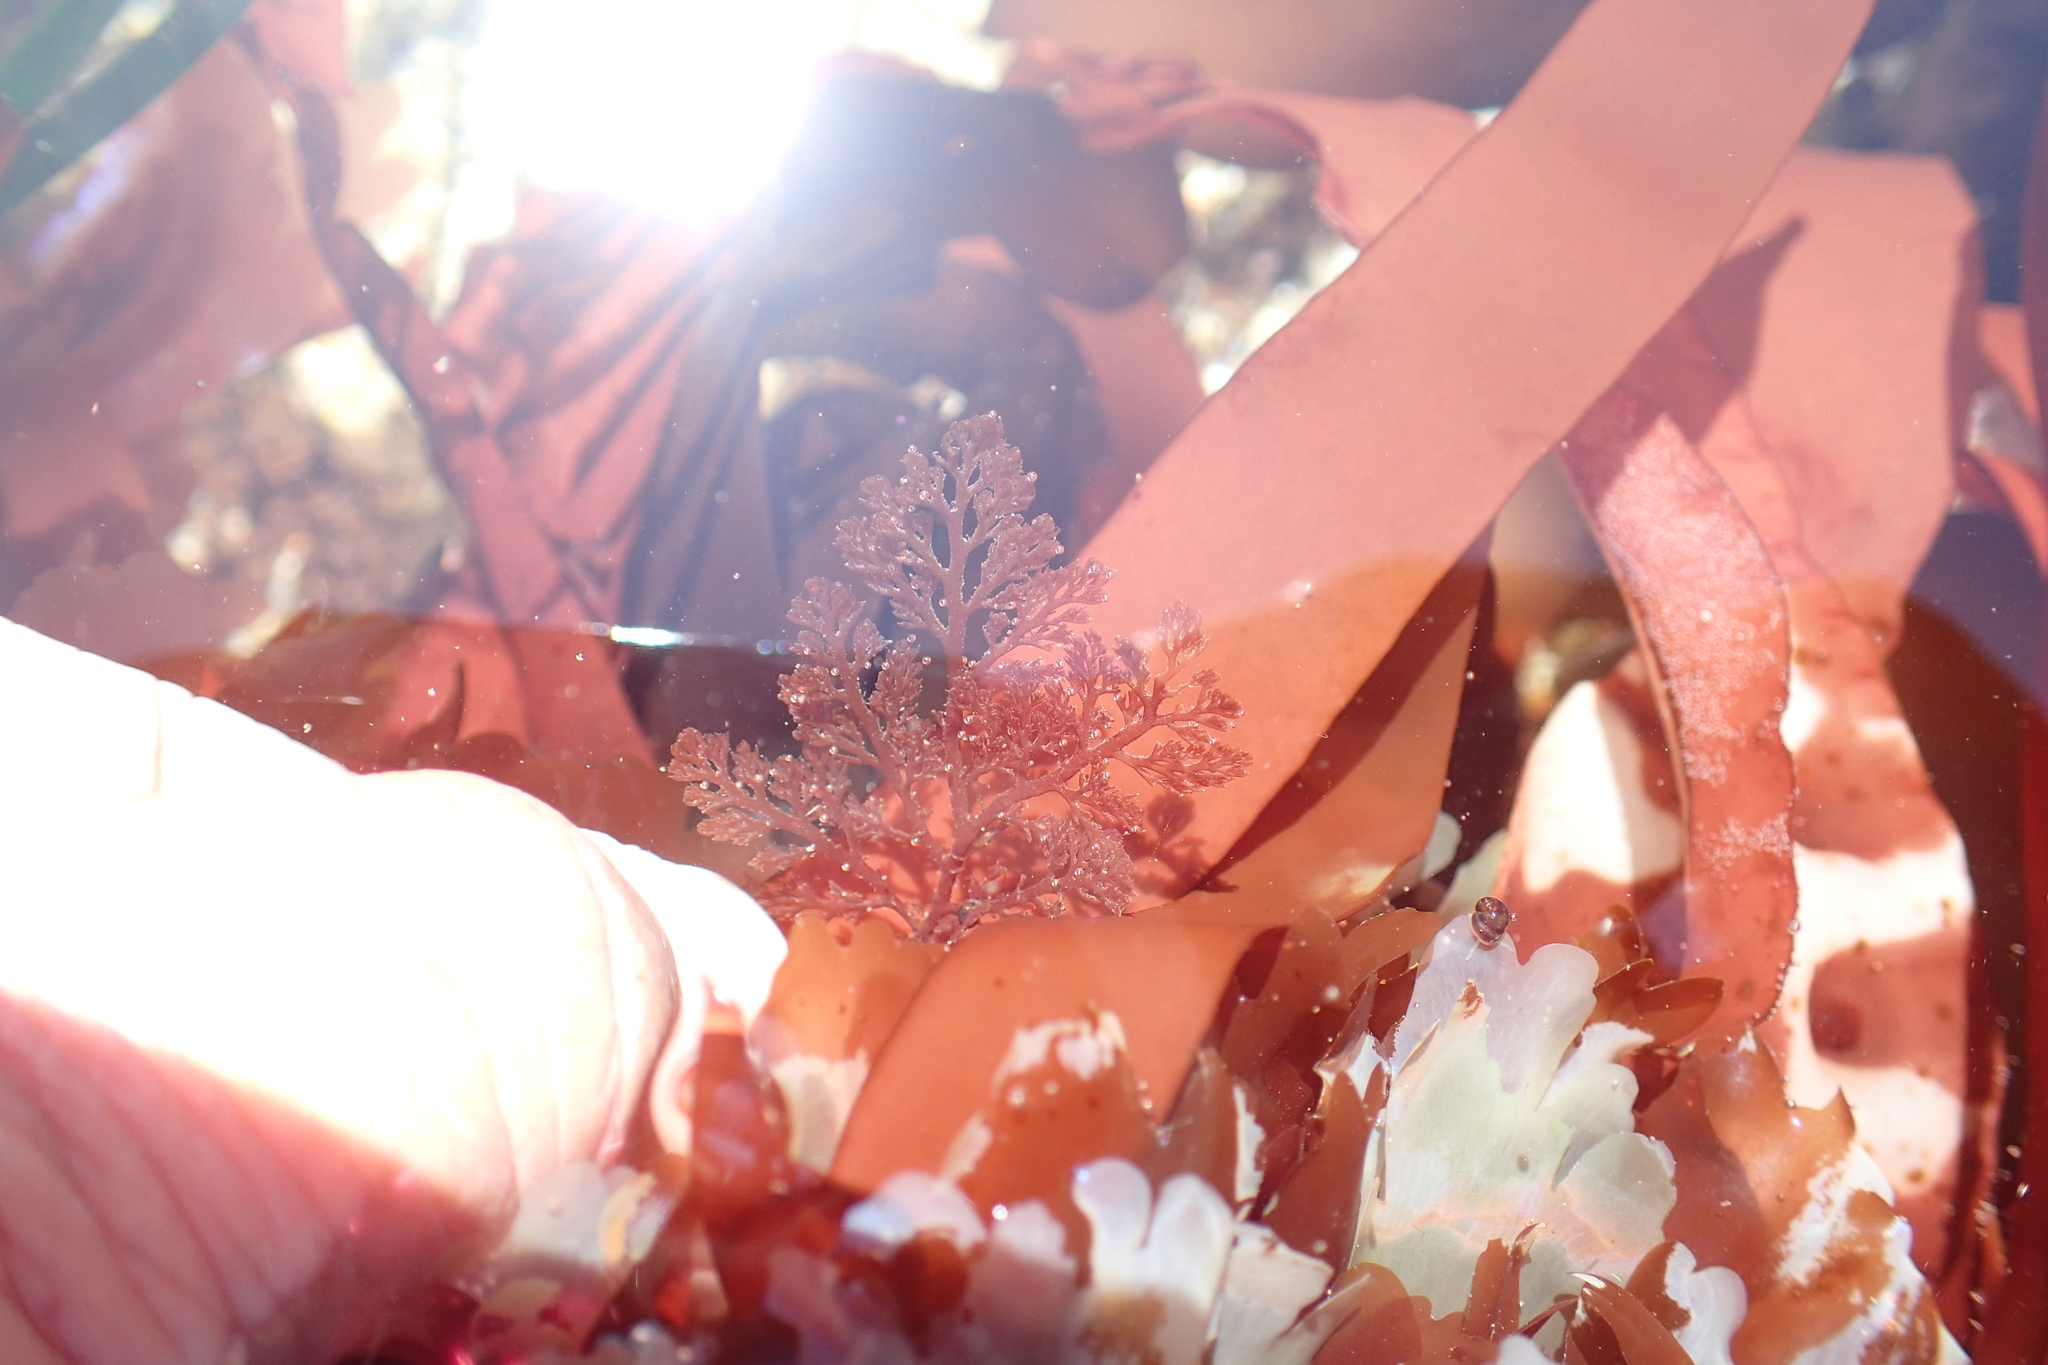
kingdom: Plantae
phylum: Rhodophyta
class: Florideophyceae
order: Ceramiales
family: Ceramiaceae
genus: Microcladia
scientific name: Microcladia coulteri
